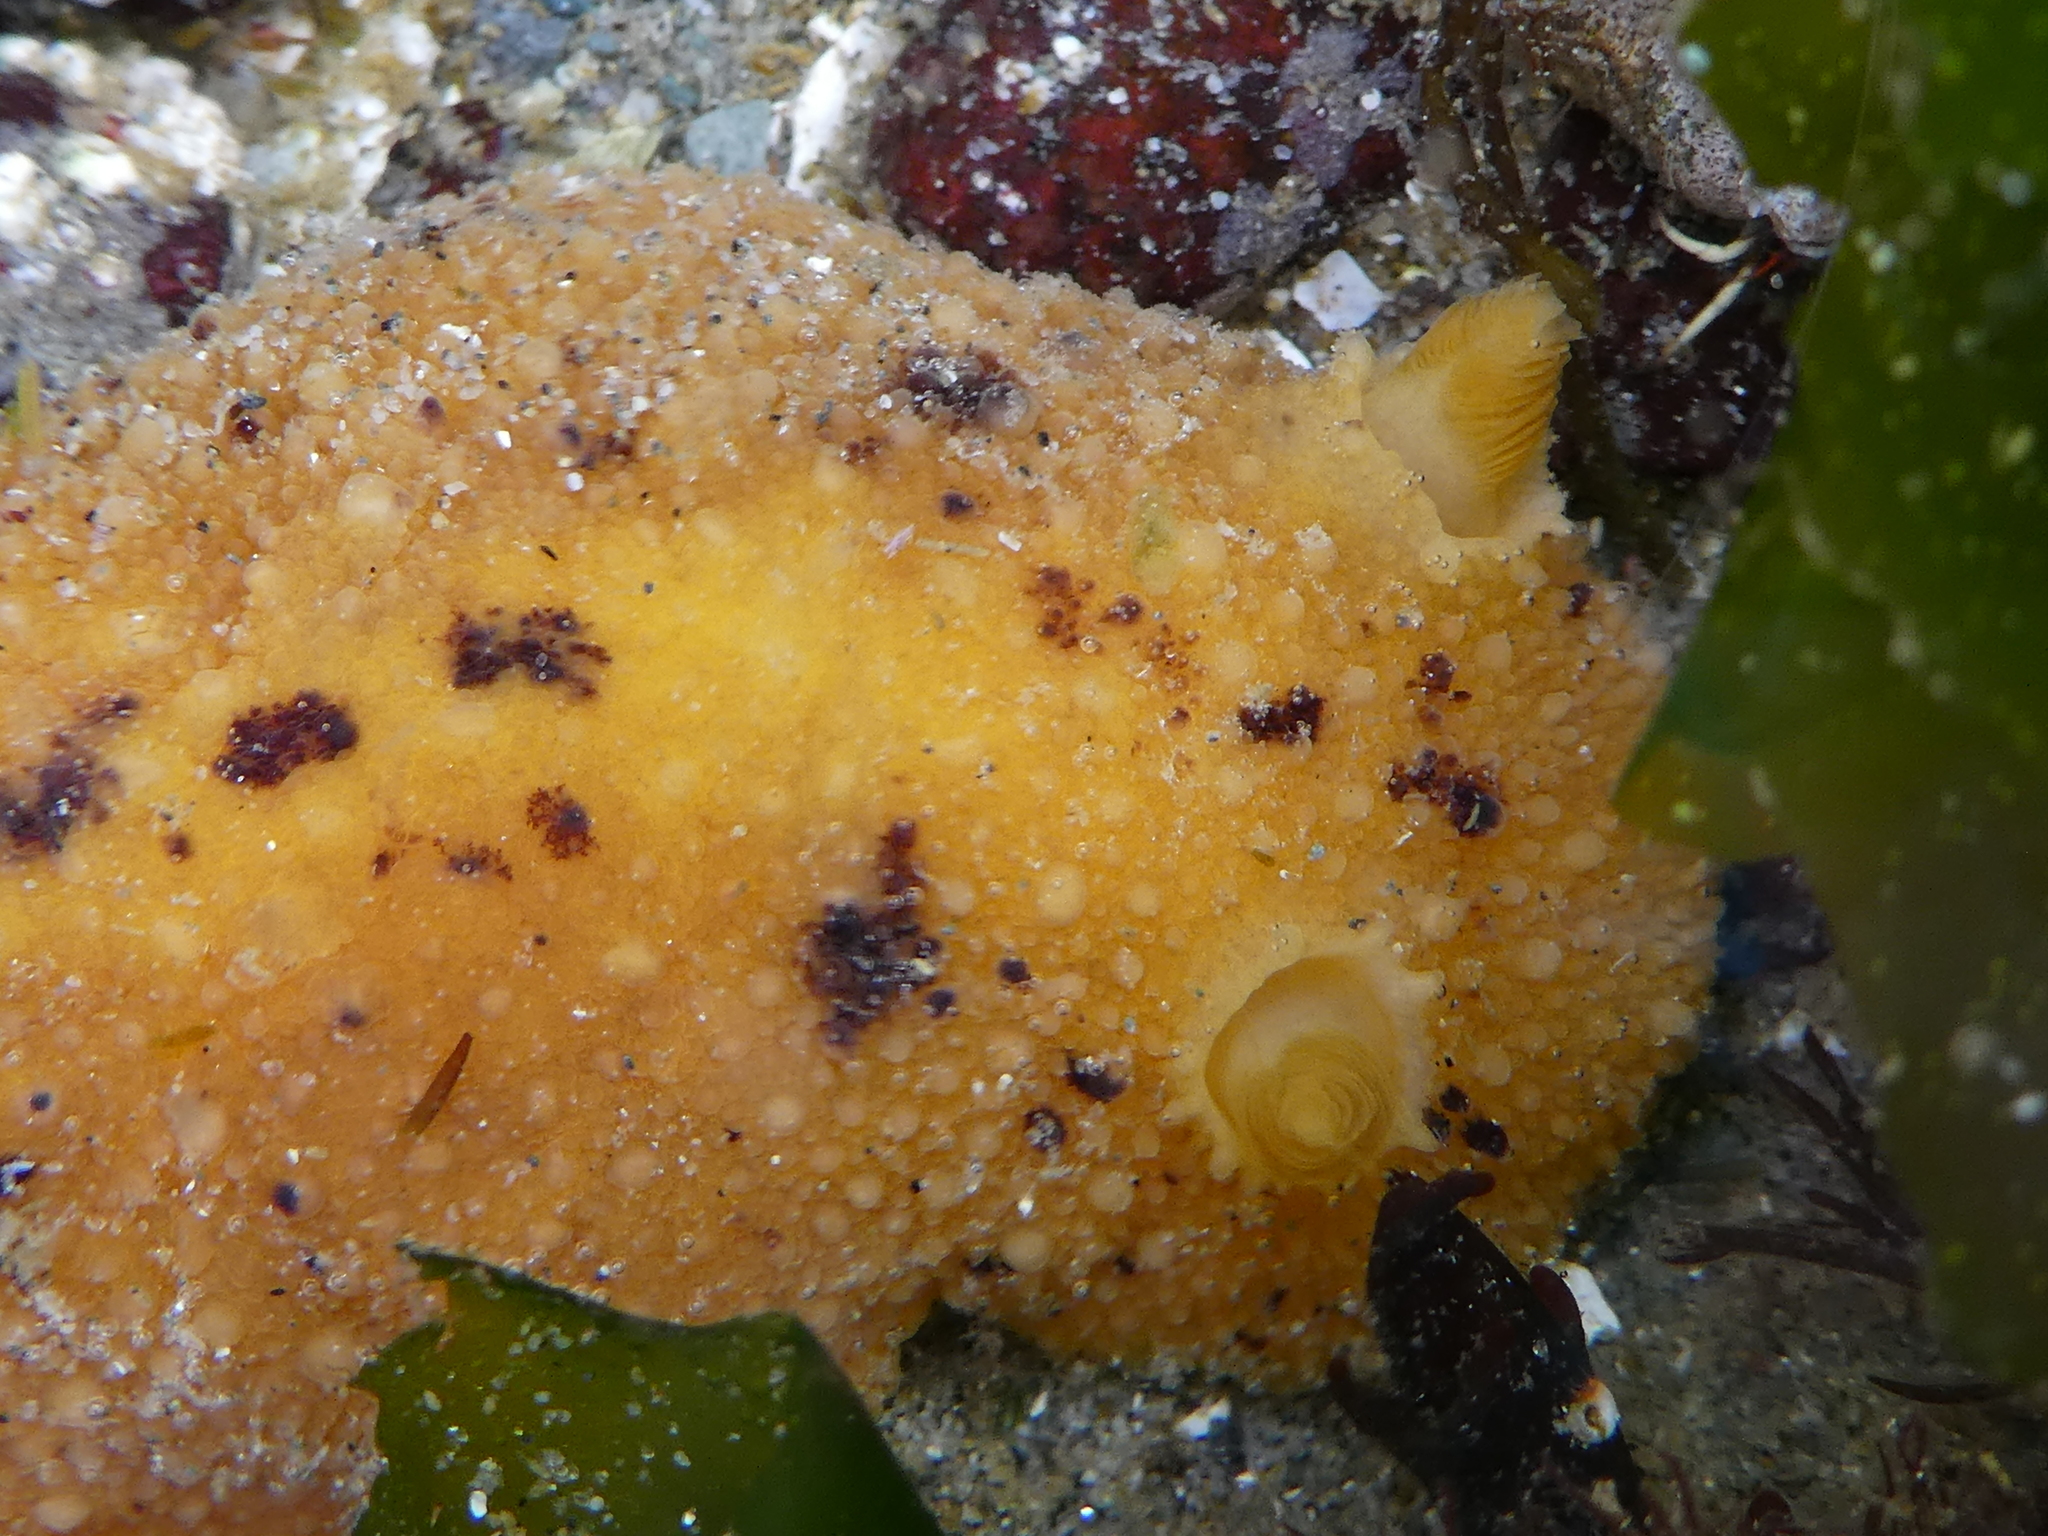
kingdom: Animalia
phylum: Mollusca
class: Gastropoda
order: Nudibranchia
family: Dorididae
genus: Doris
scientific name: Doris montereyensis
